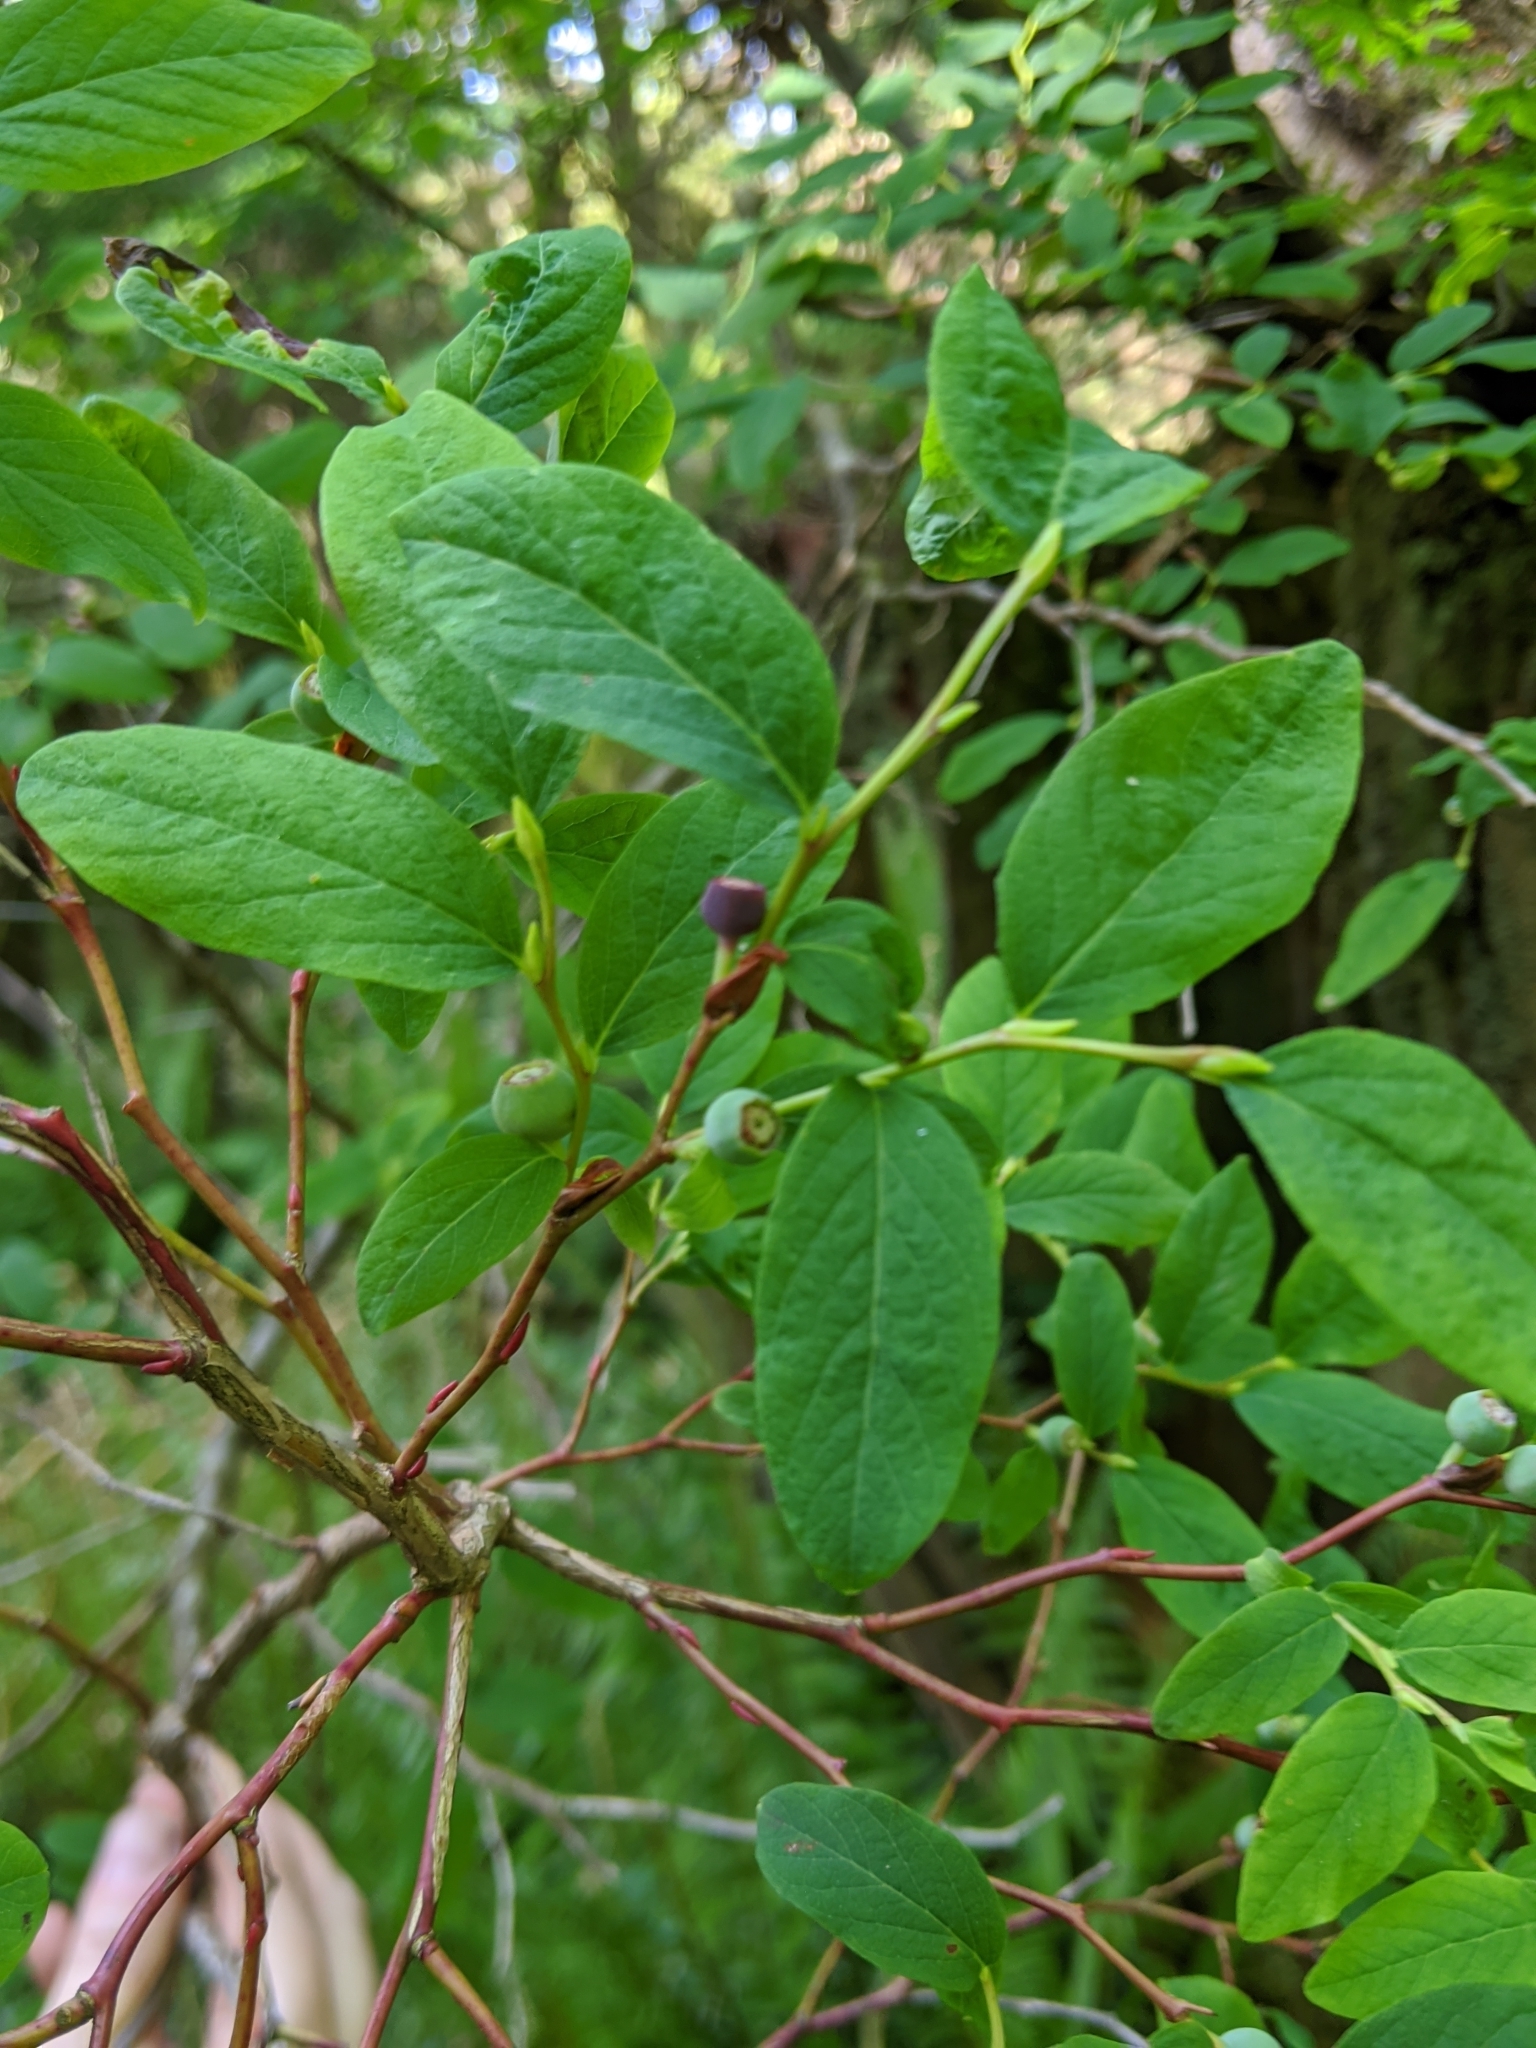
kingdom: Plantae
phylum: Tracheophyta
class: Magnoliopsida
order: Ericales
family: Ericaceae
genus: Vaccinium
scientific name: Vaccinium ovalifolium
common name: Early blueberry
